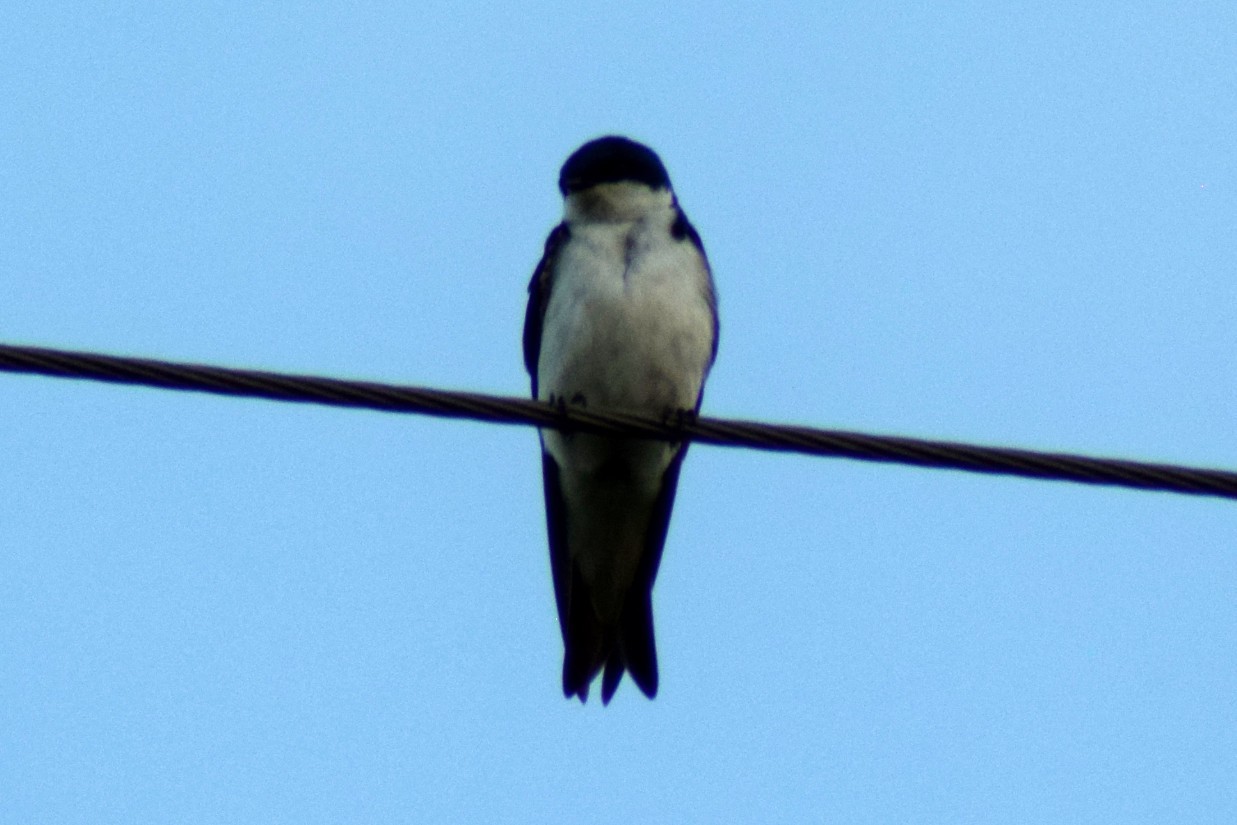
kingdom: Animalia
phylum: Chordata
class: Aves
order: Passeriformes
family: Hirundinidae
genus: Tachycineta
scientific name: Tachycineta bicolor
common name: Tree swallow
